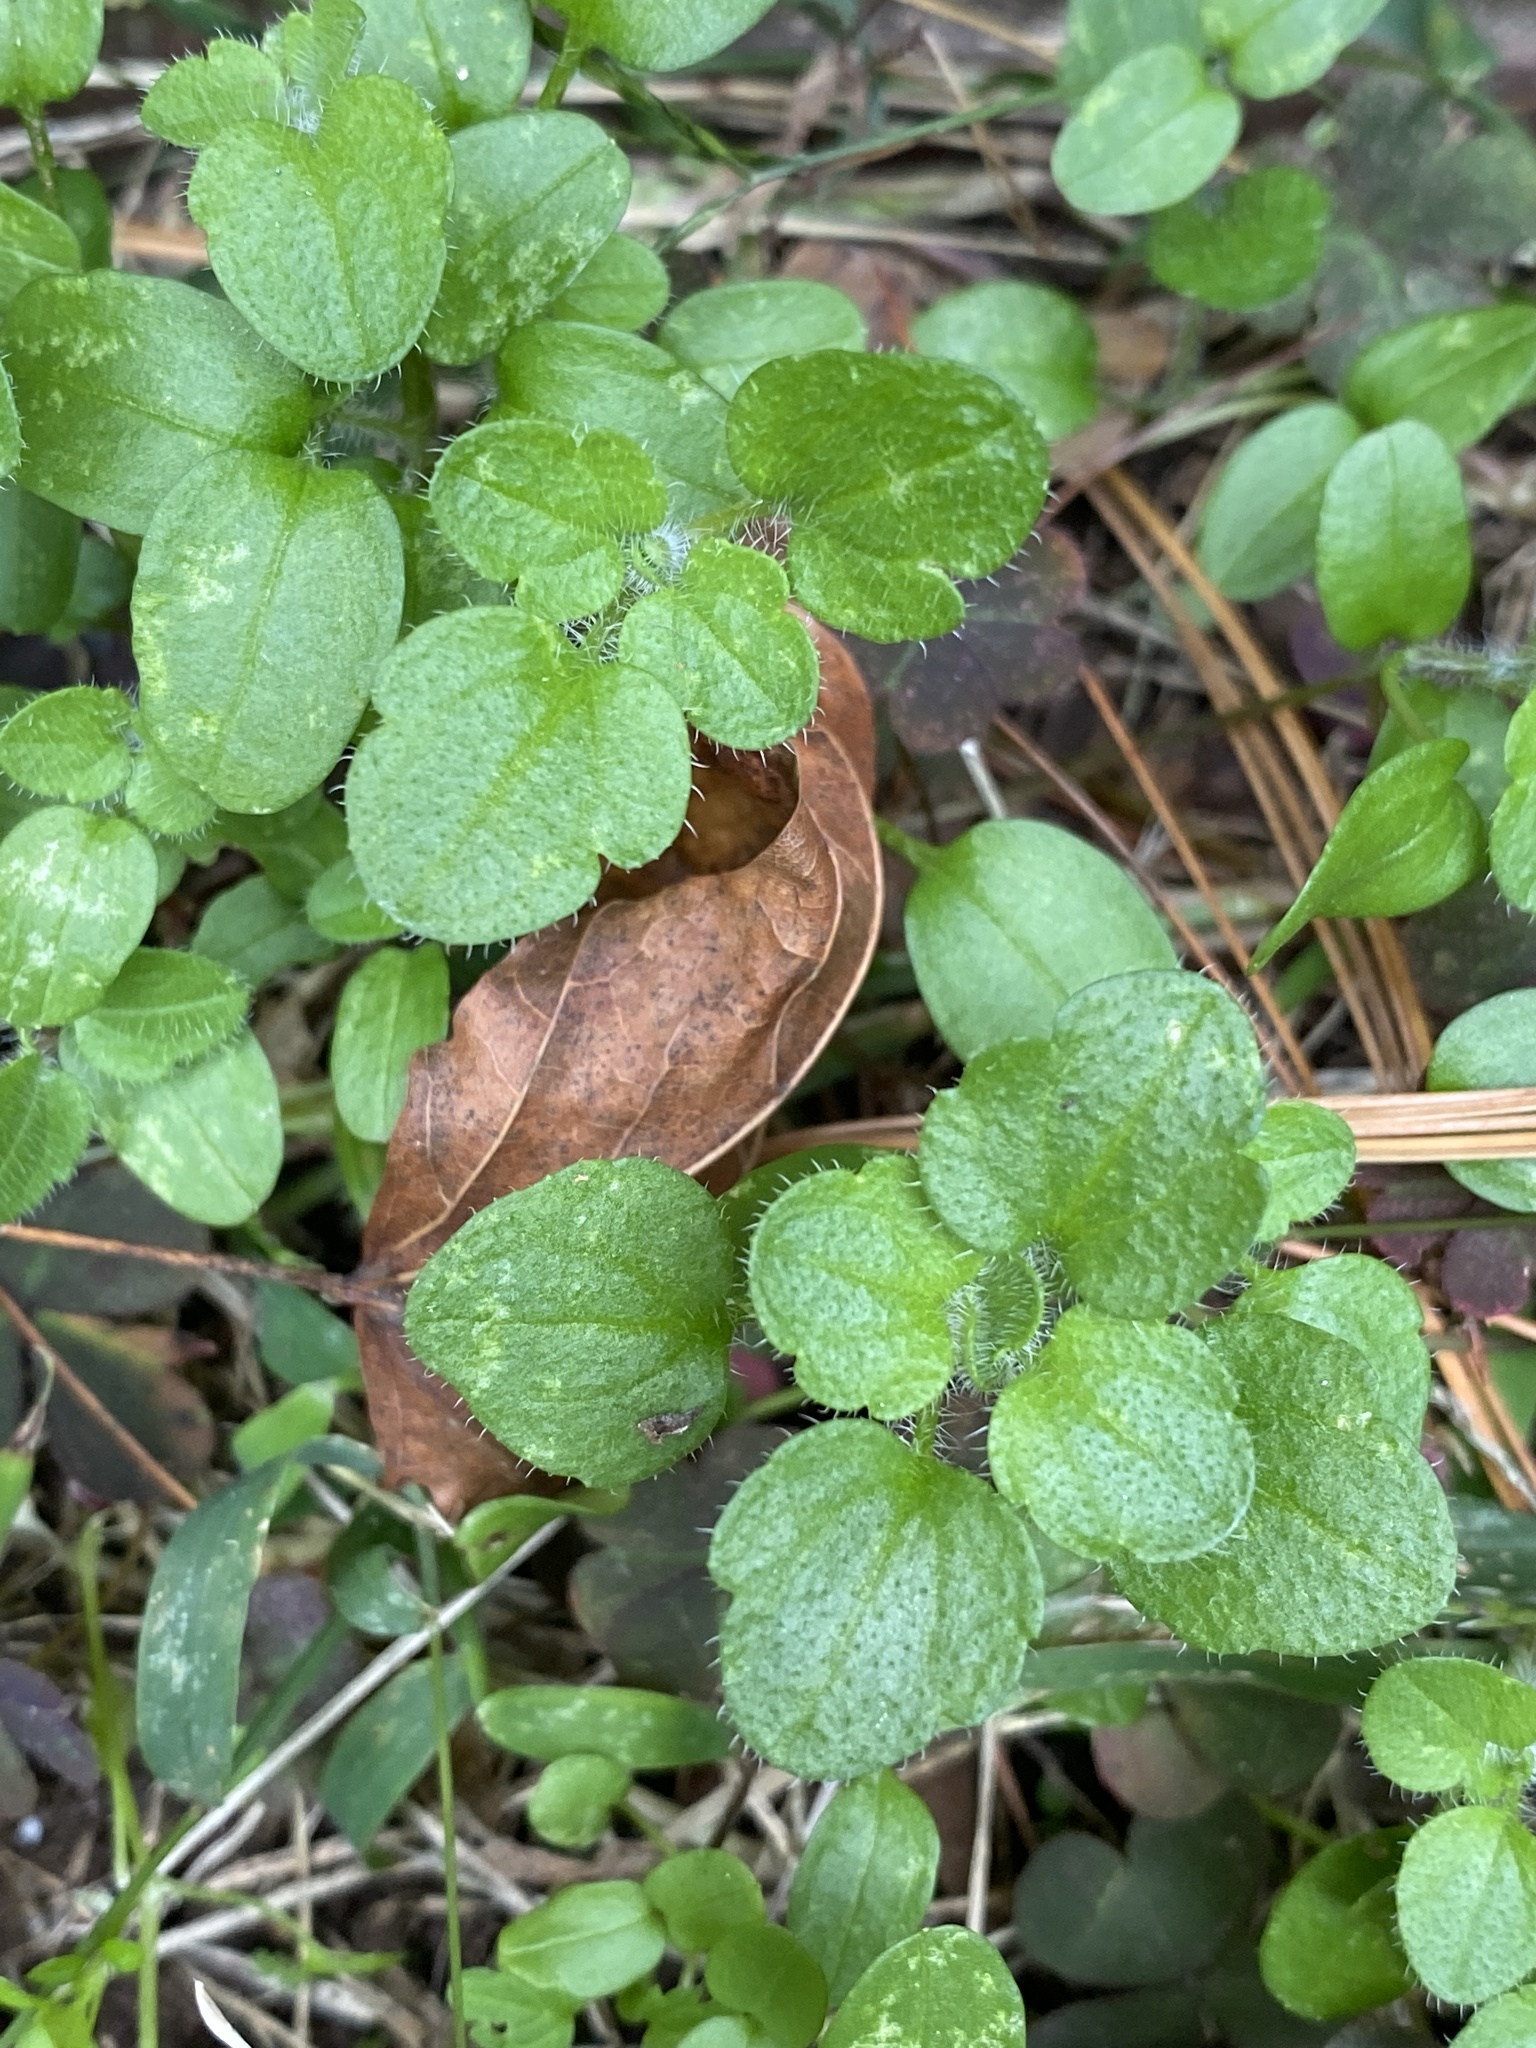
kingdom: Plantae
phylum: Tracheophyta
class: Magnoliopsida
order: Lamiales
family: Plantaginaceae
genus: Veronica
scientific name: Veronica hederifolia
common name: Ivy-leaved speedwell
